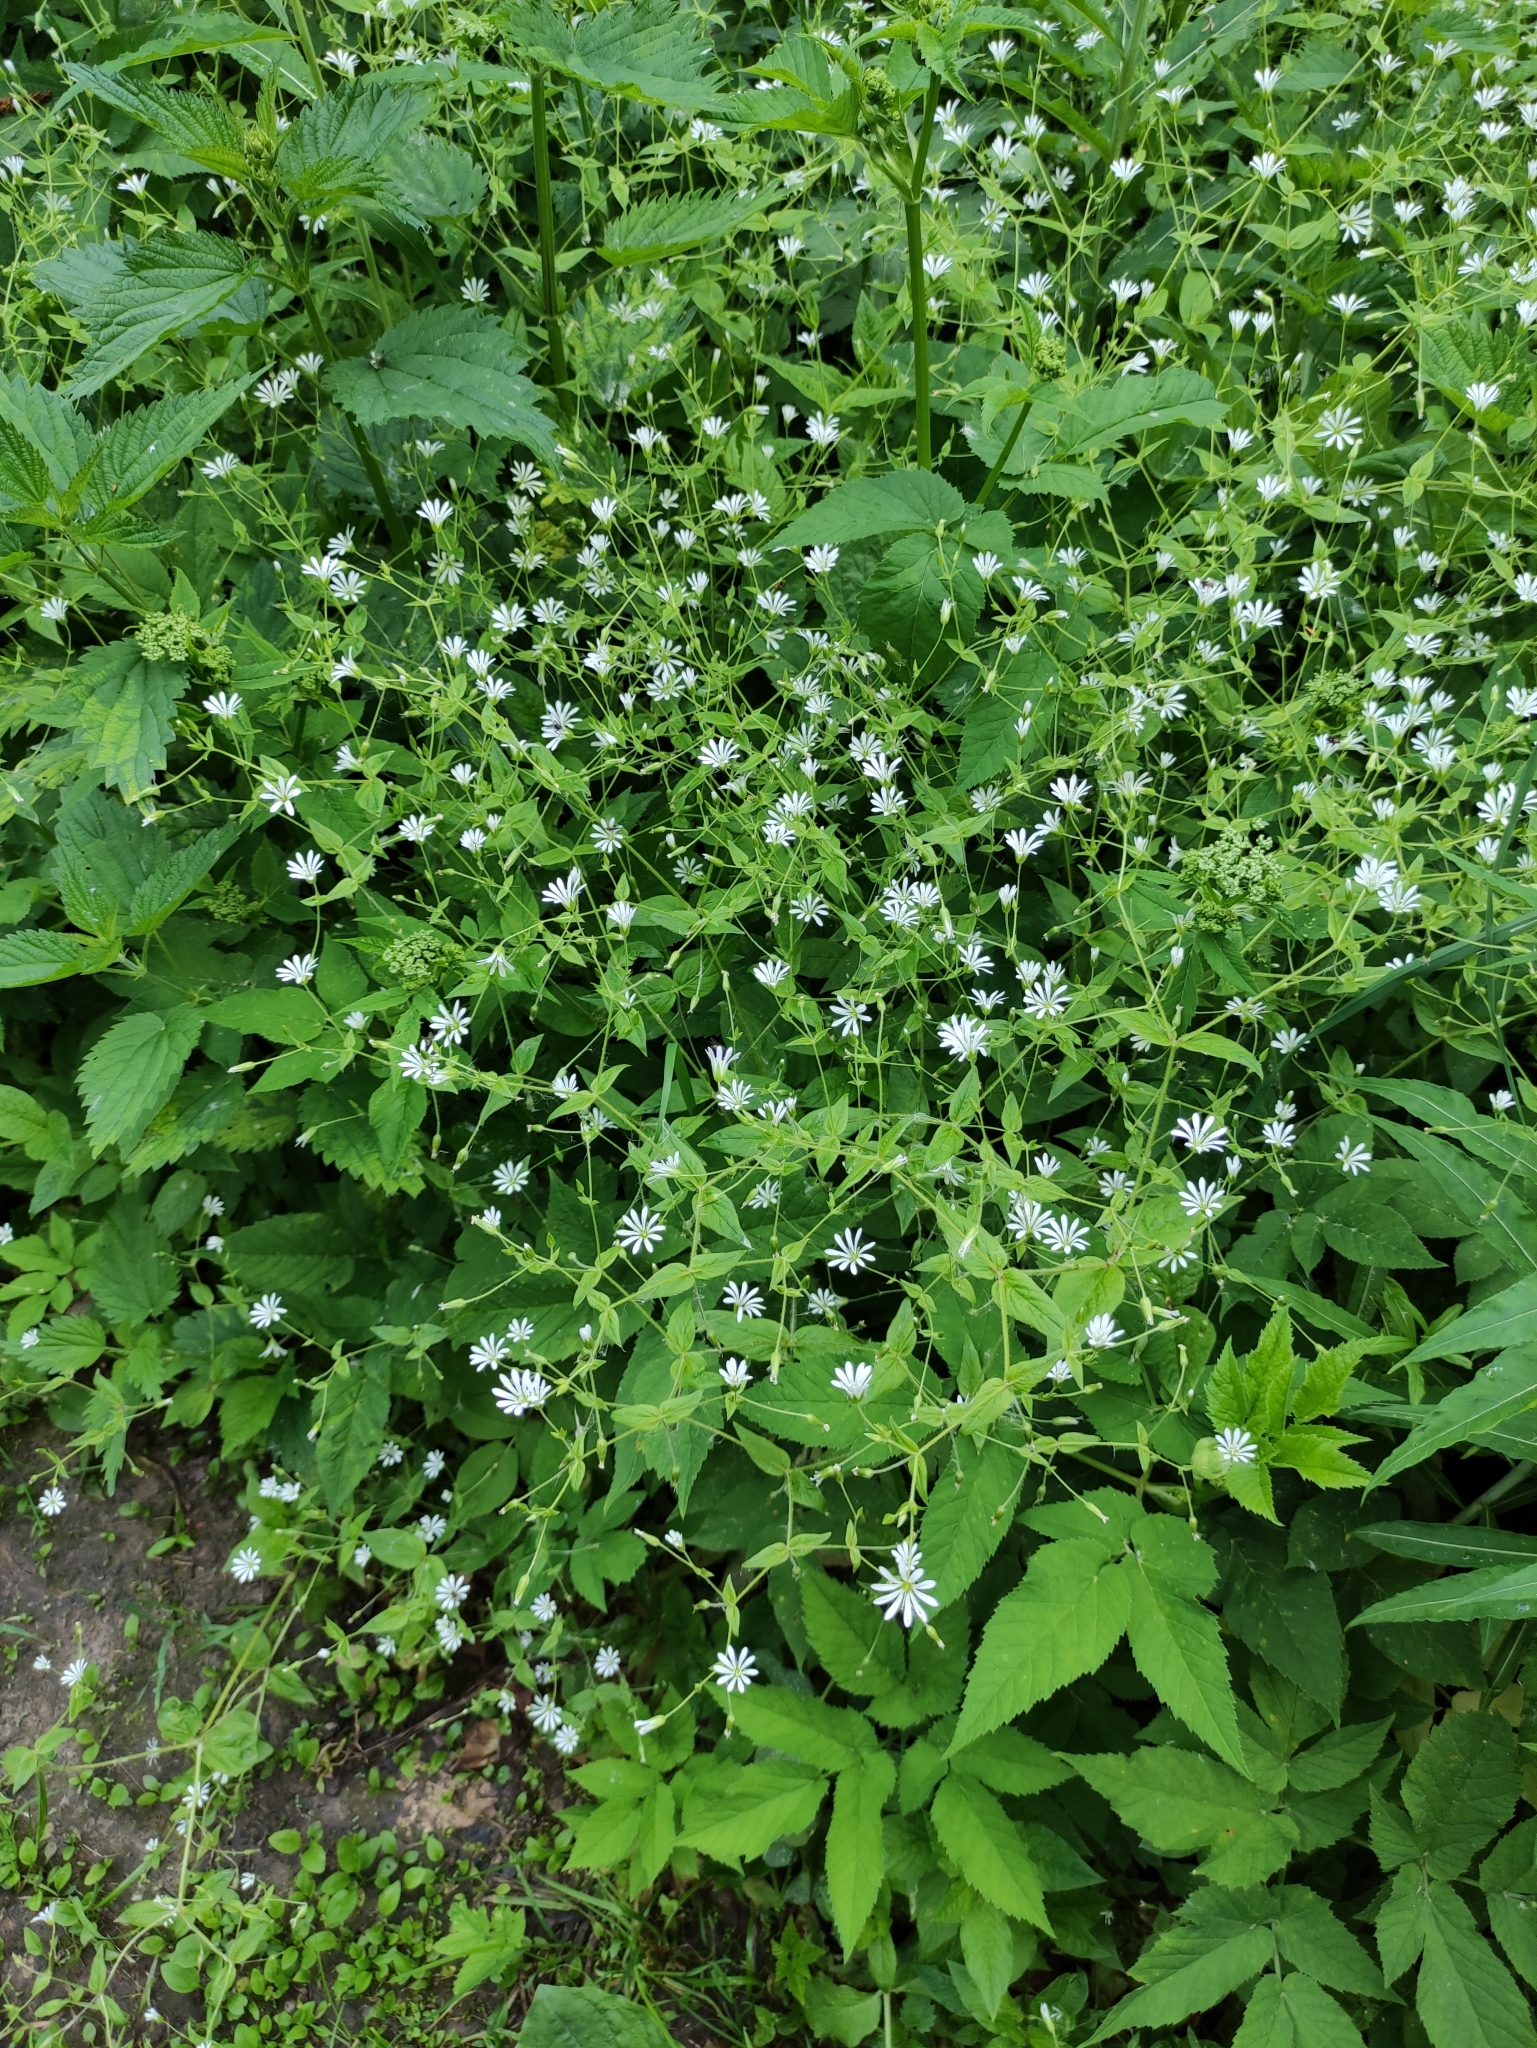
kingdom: Plantae
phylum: Tracheophyta
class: Magnoliopsida
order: Caryophyllales
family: Caryophyllaceae
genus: Stellaria
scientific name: Stellaria nemorum
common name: Wood stitchwort
